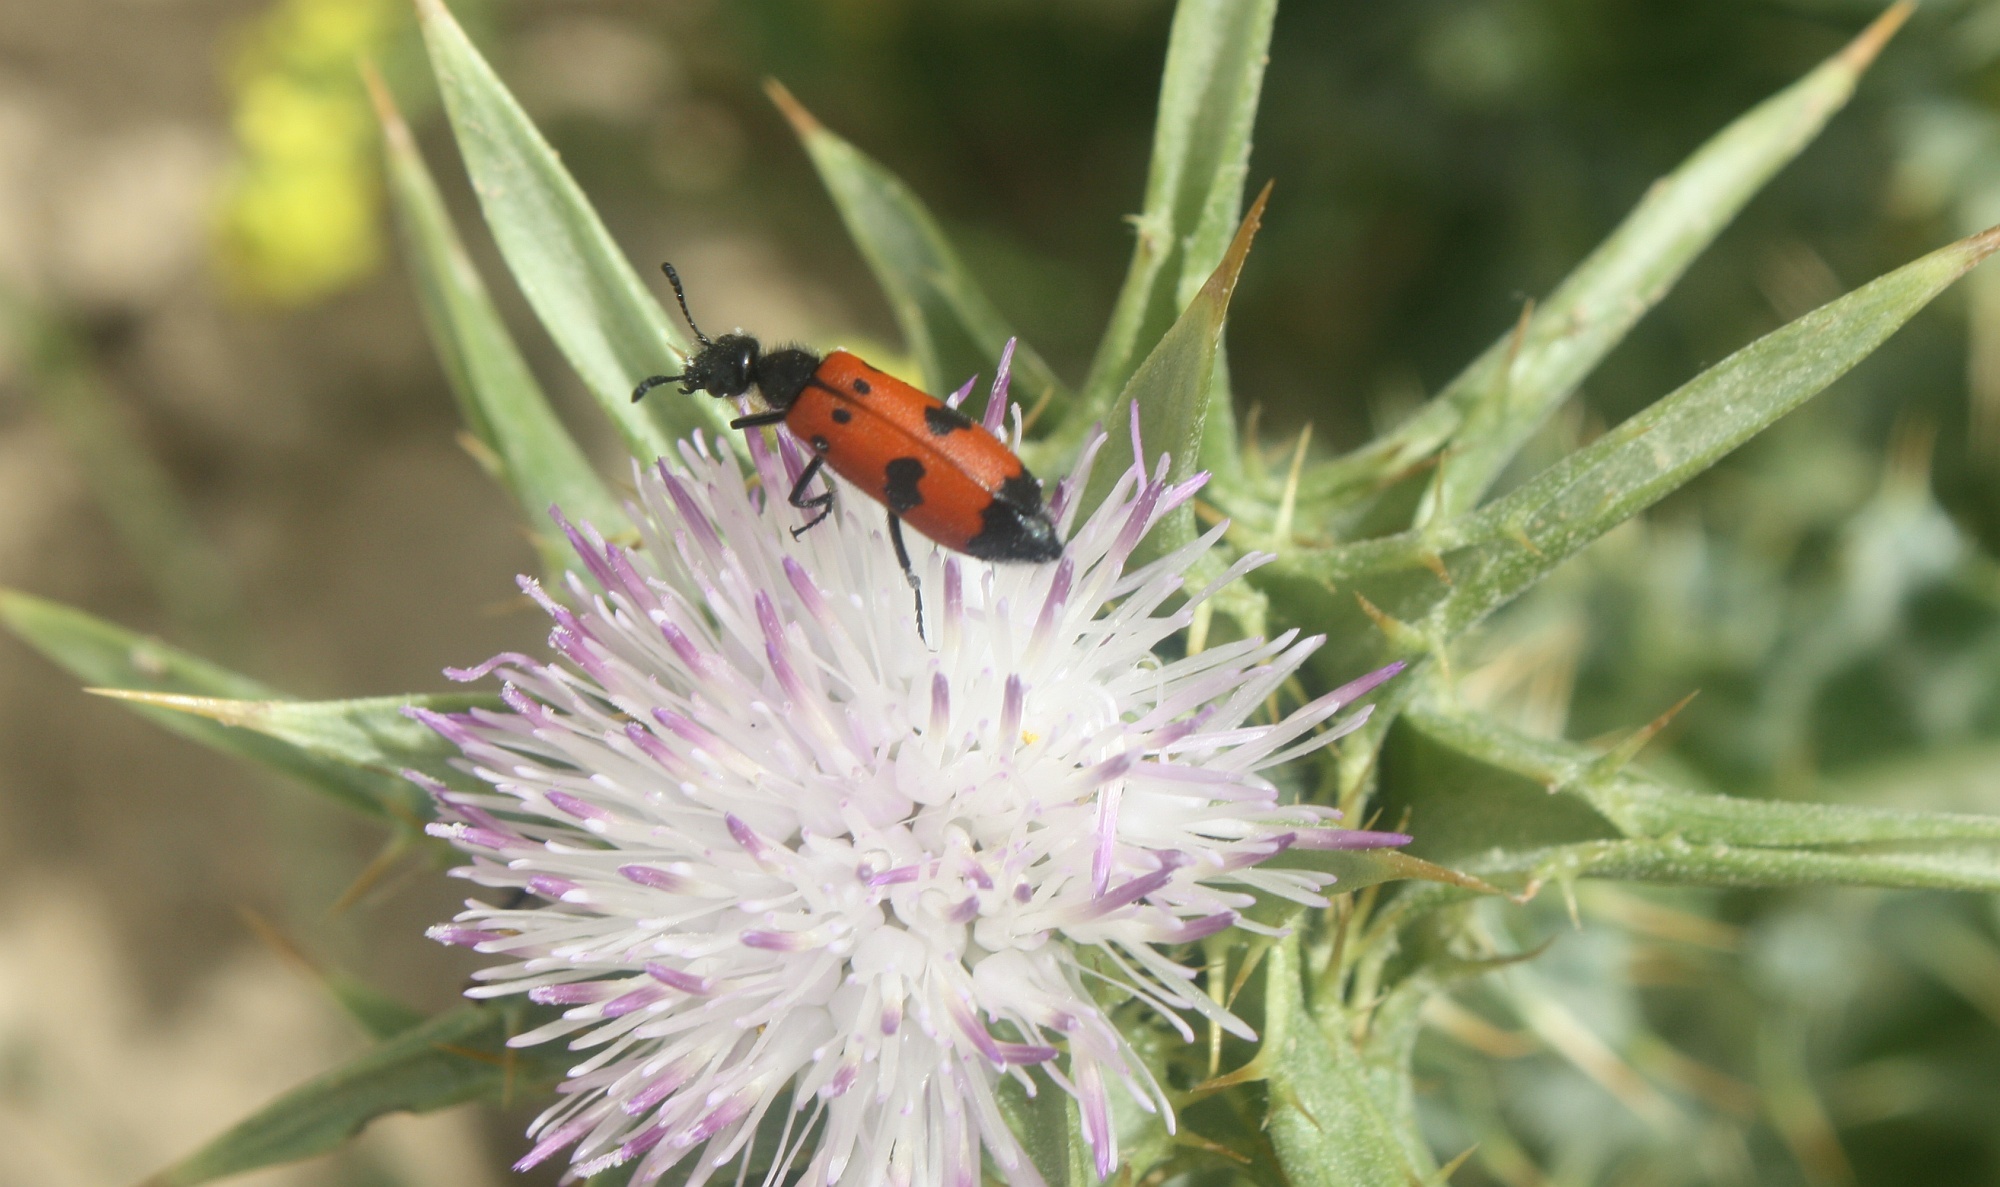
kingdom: Animalia
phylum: Arthropoda
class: Insecta
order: Coleoptera
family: Meloidae
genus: Mylabris
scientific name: Mylabris quadripunctata
